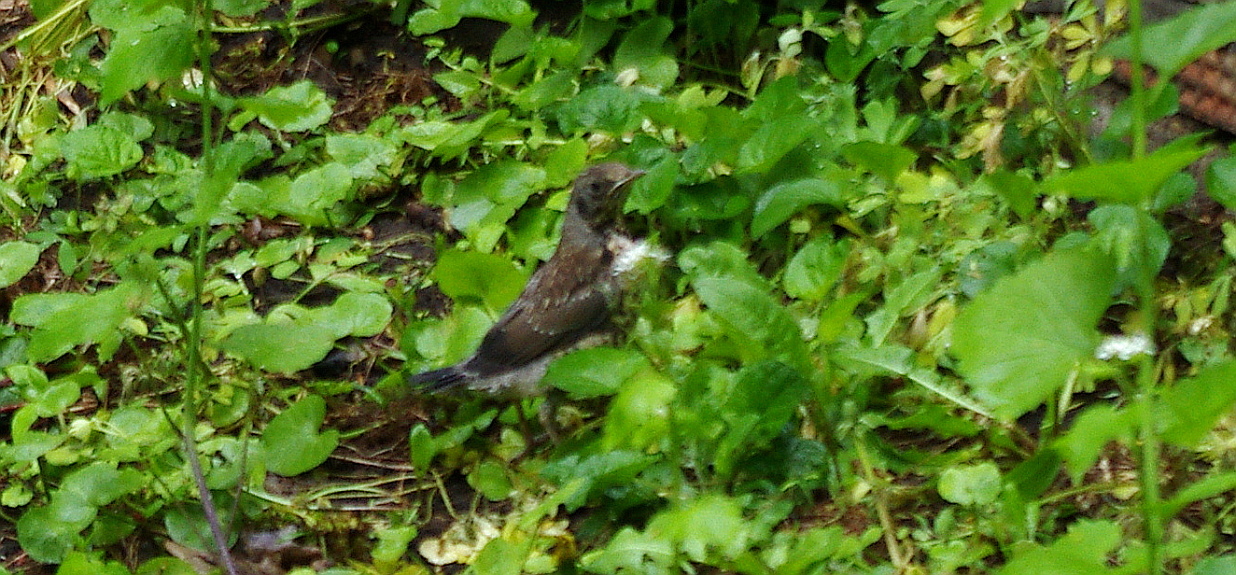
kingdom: Animalia
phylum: Chordata
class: Aves
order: Passeriformes
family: Turdidae
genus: Turdus
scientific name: Turdus pilaris
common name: Fieldfare
